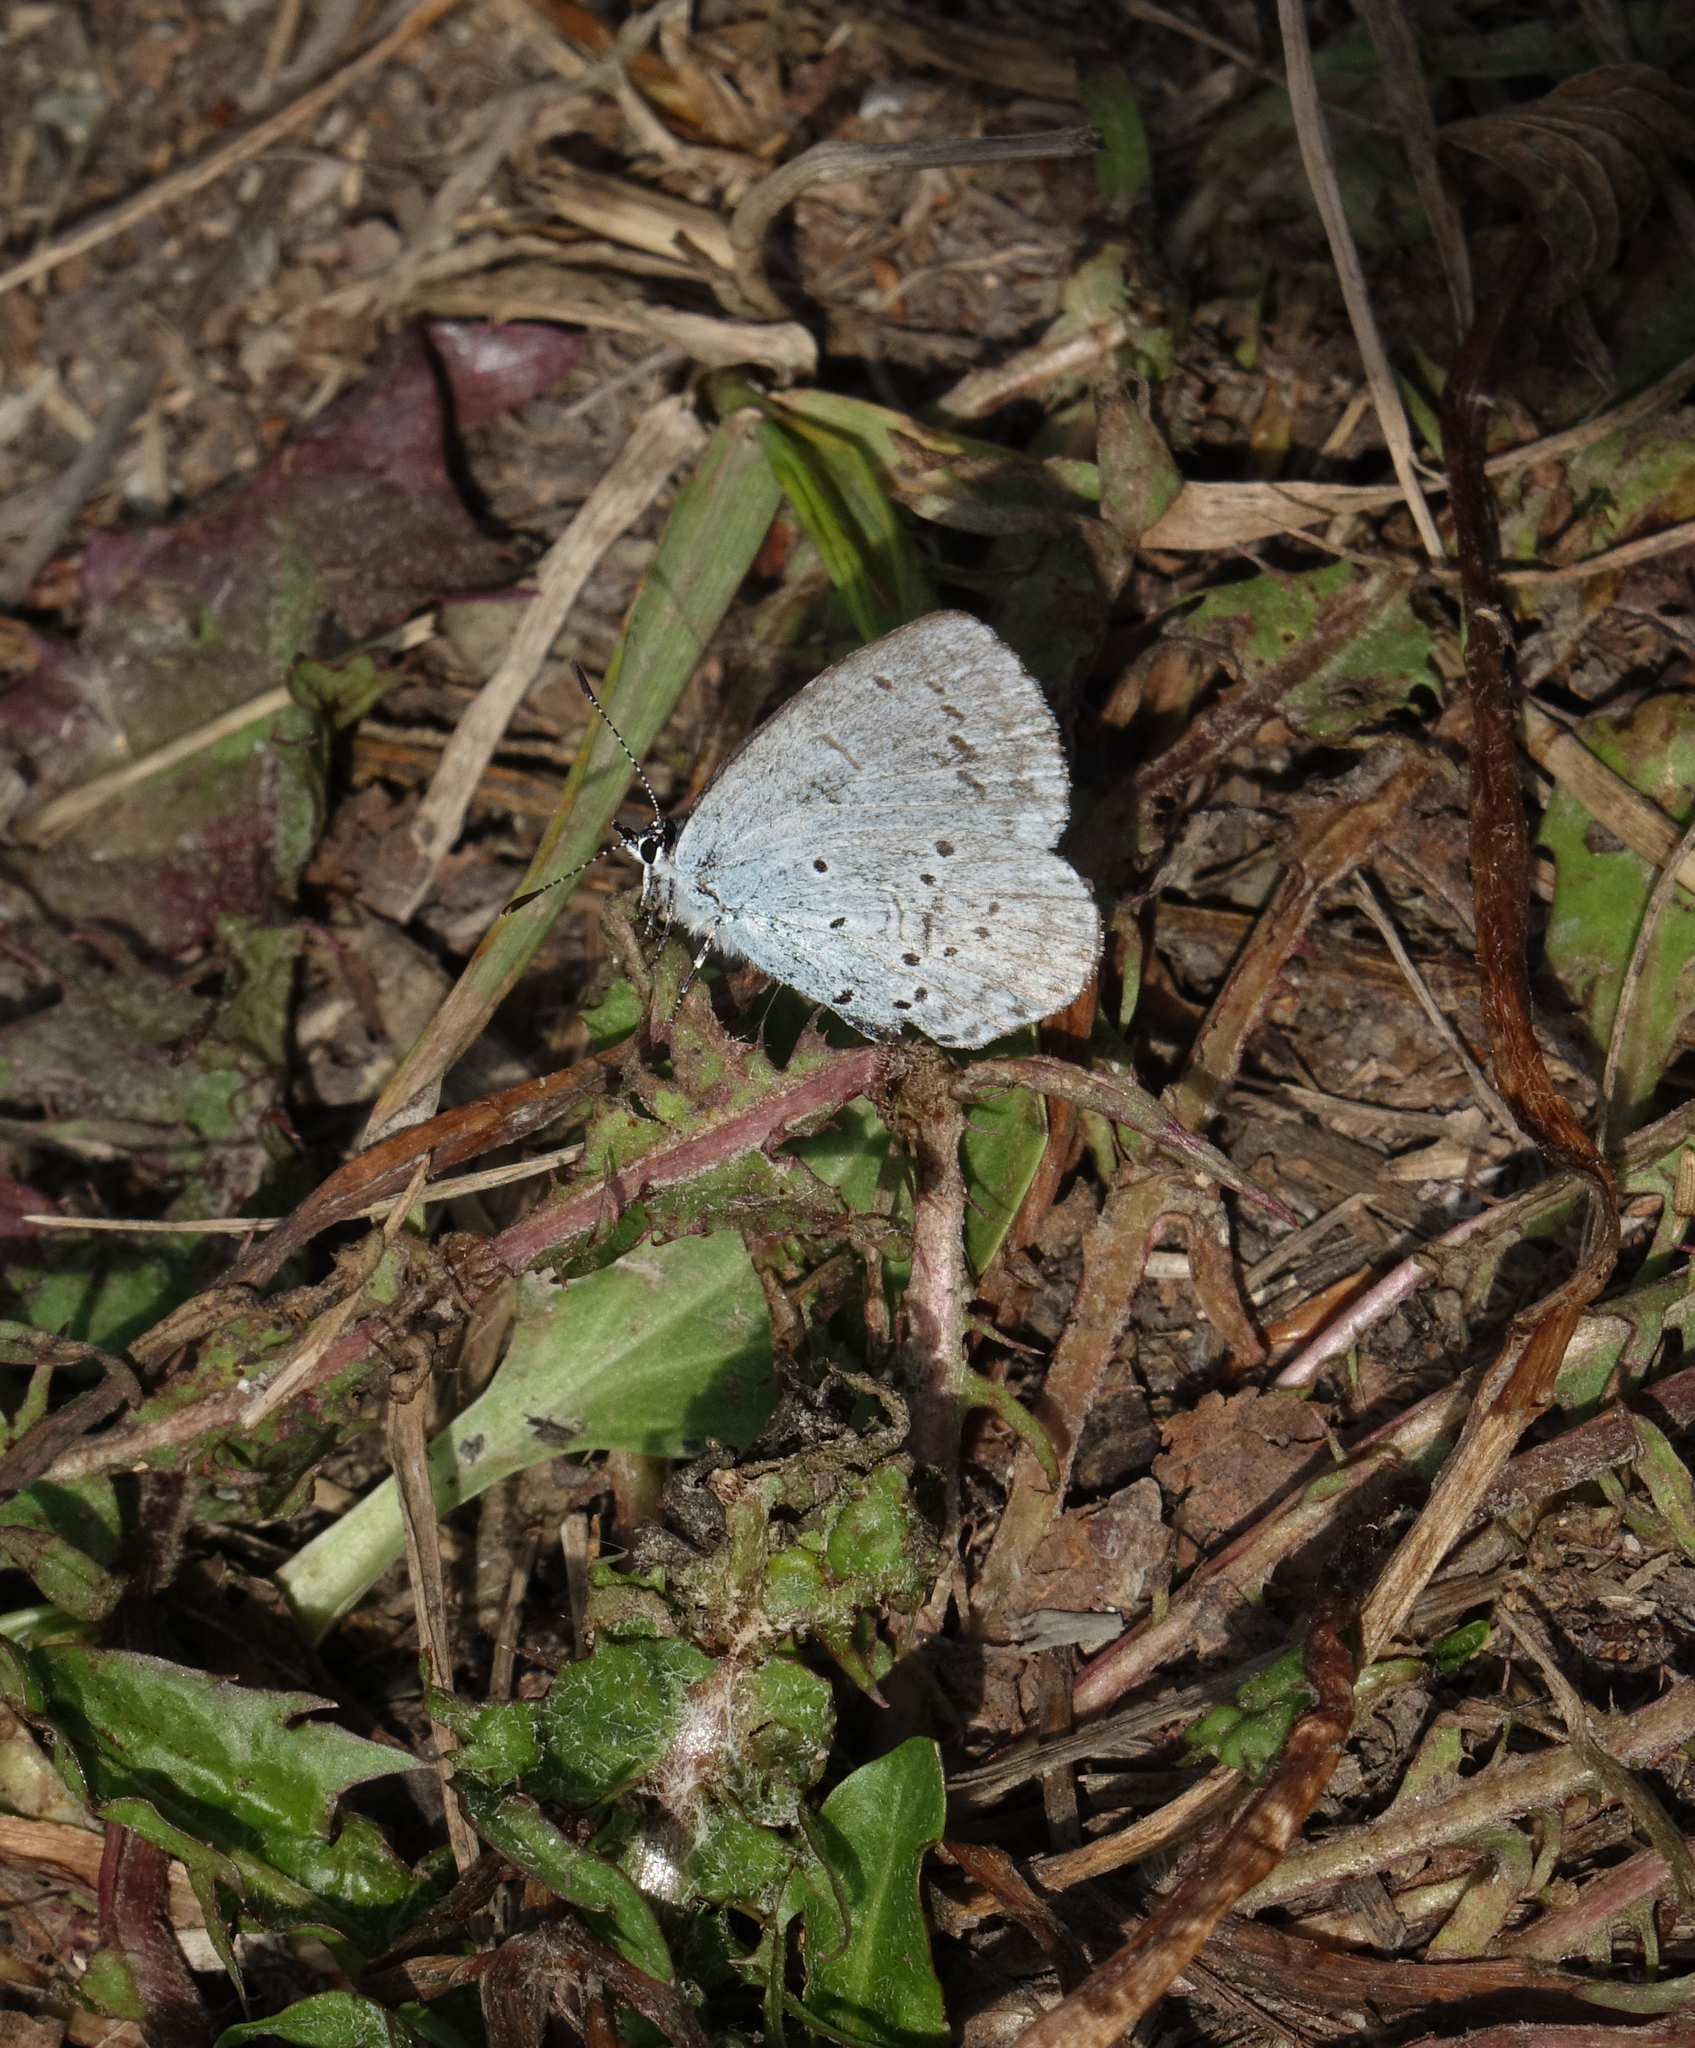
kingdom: Animalia
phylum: Arthropoda
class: Insecta
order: Lepidoptera
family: Lycaenidae
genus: Celastrina
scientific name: Celastrina argiolus
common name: Holly blue
